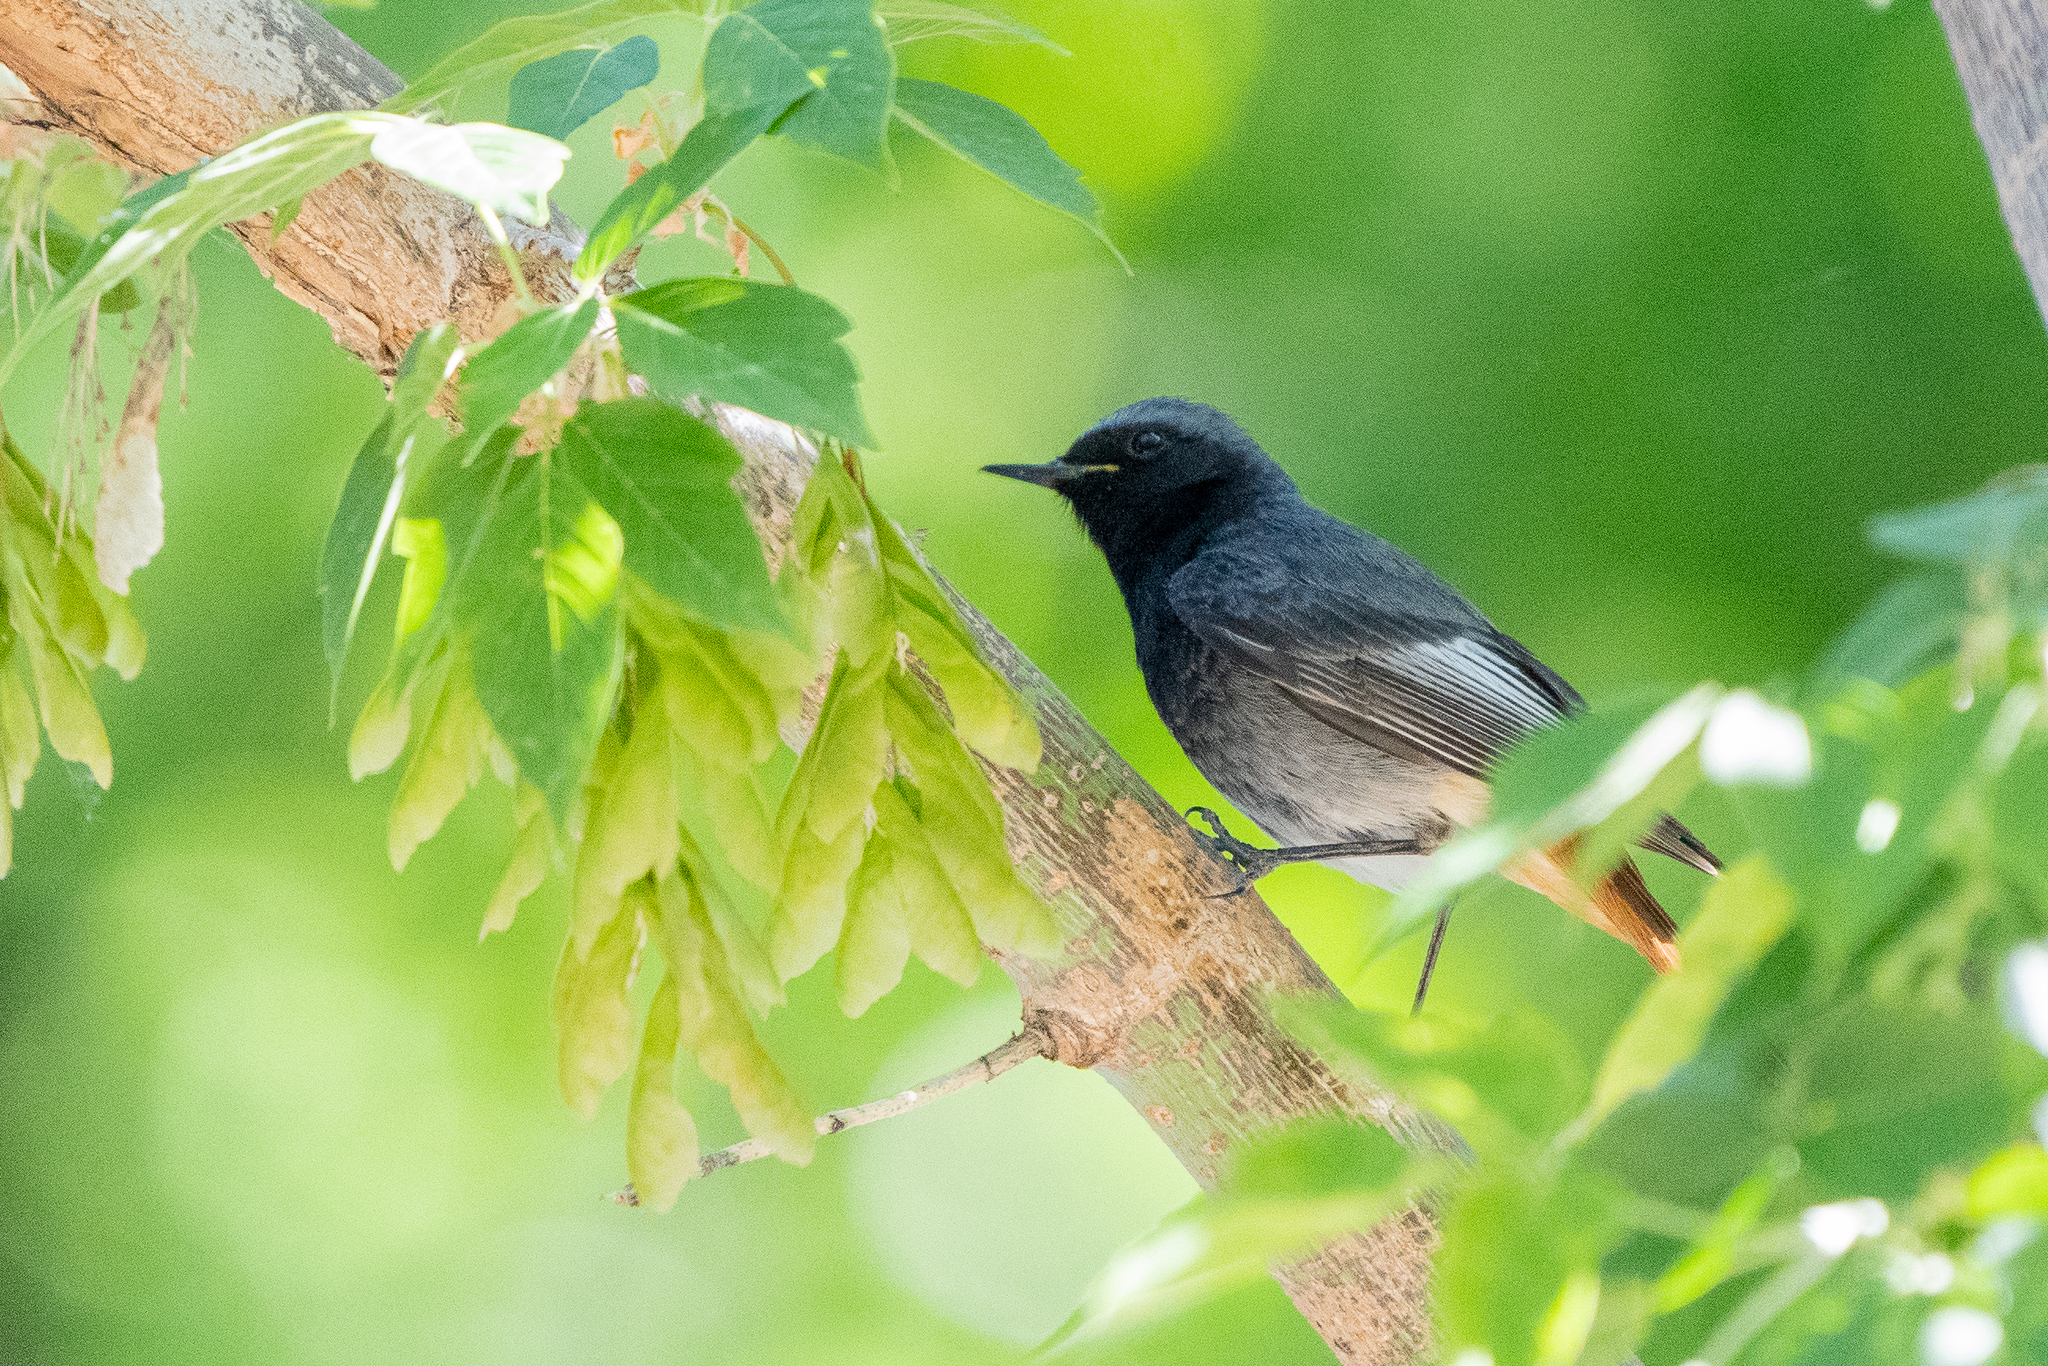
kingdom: Animalia
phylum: Chordata
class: Aves
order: Passeriformes
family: Muscicapidae
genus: Phoenicurus
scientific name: Phoenicurus ochruros
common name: Black redstart
